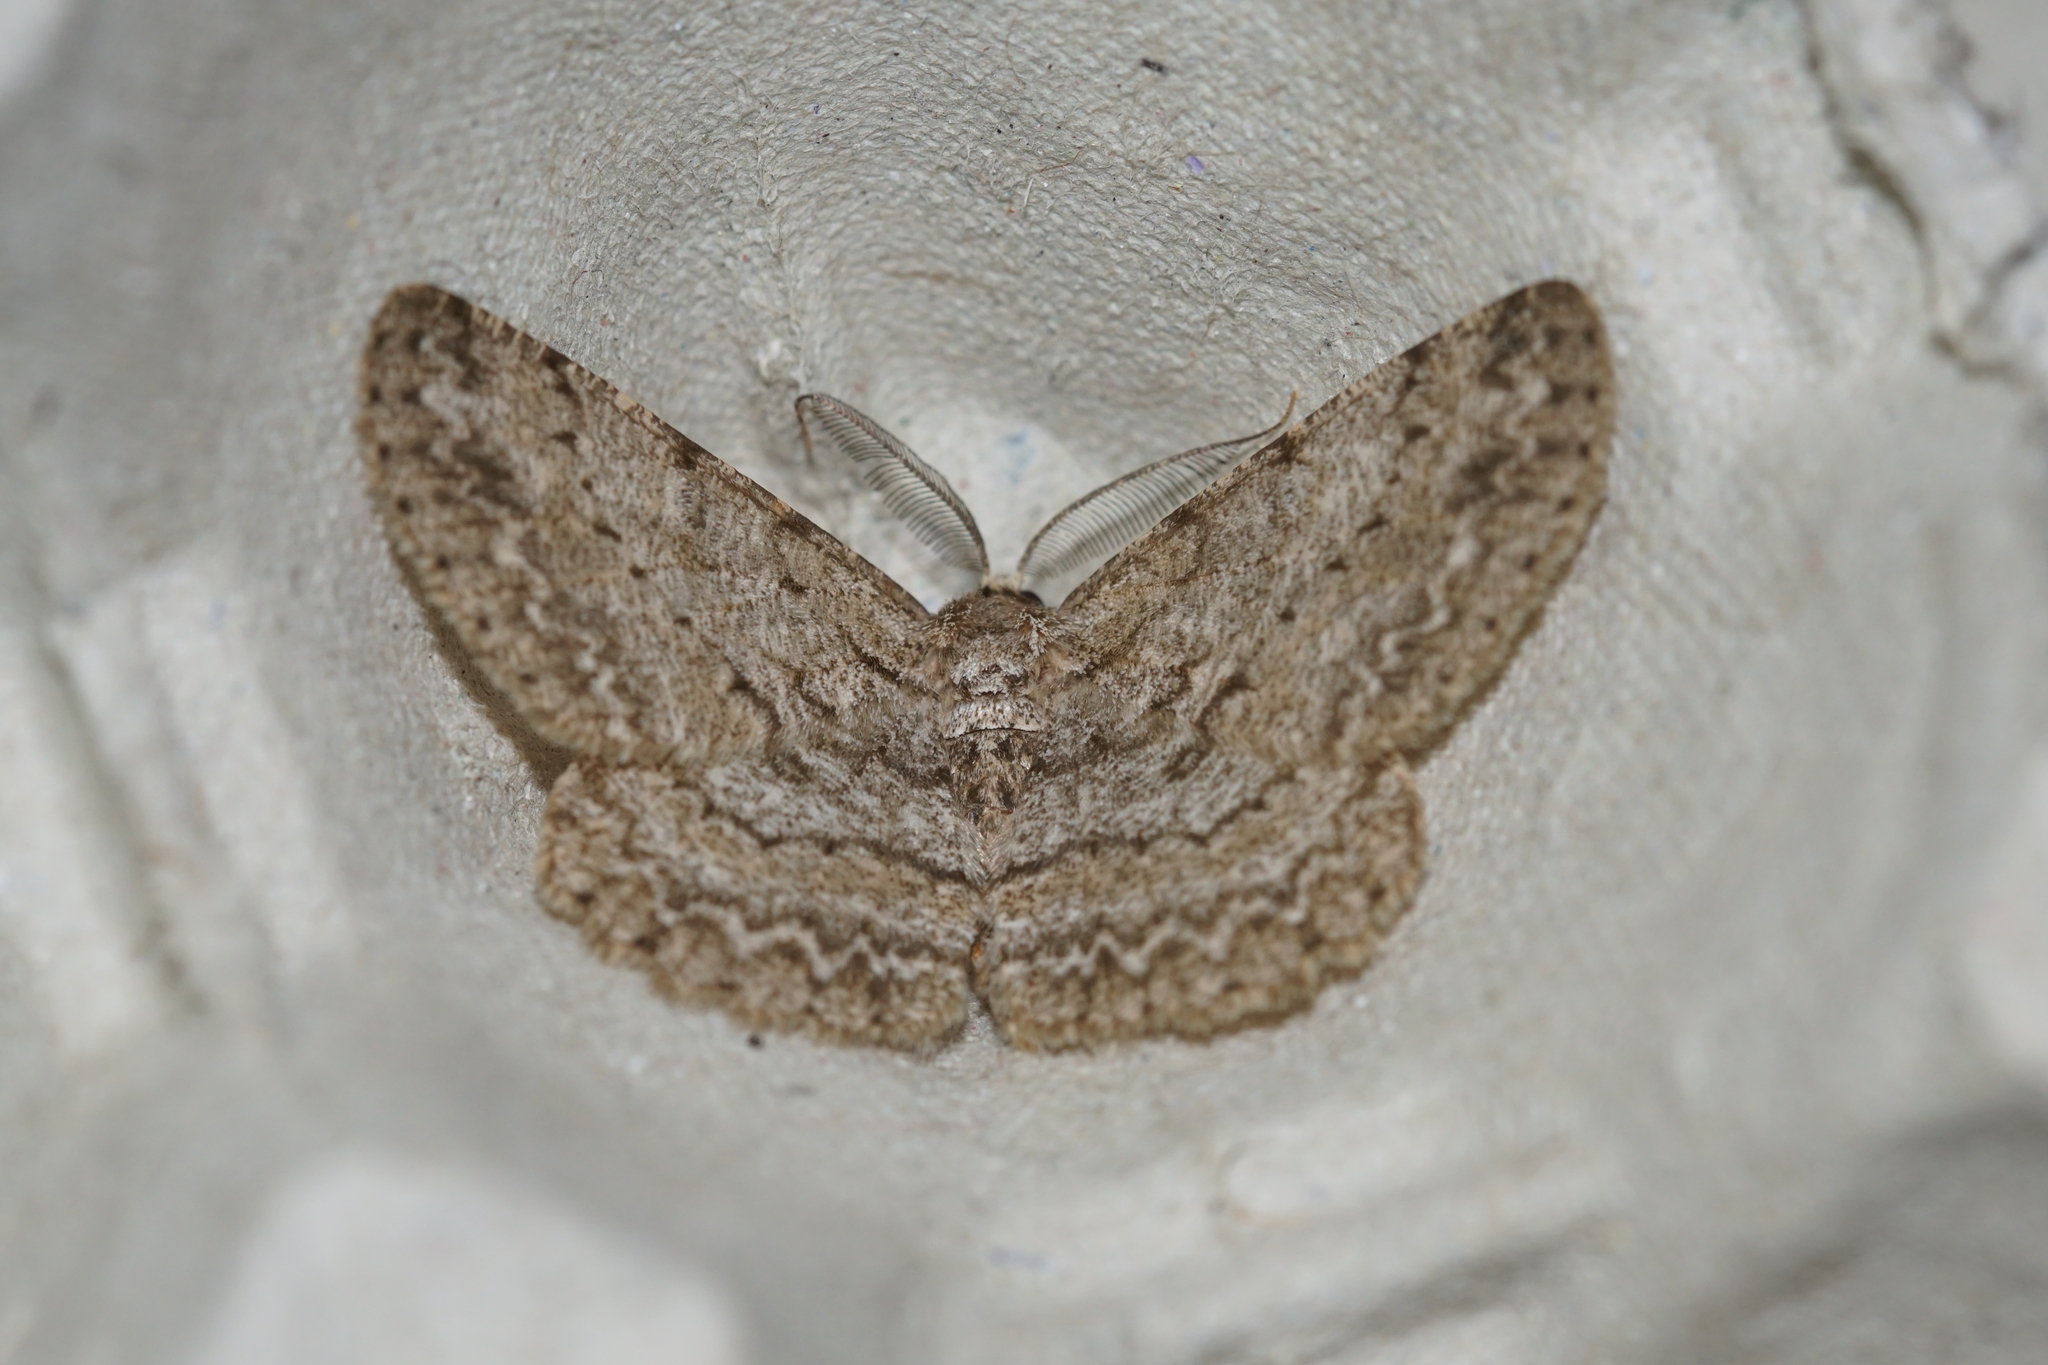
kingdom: Animalia
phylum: Arthropoda
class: Insecta
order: Lepidoptera
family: Geometridae
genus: Hypomecis
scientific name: Hypomecis punctinalis
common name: Pale oak beauty
